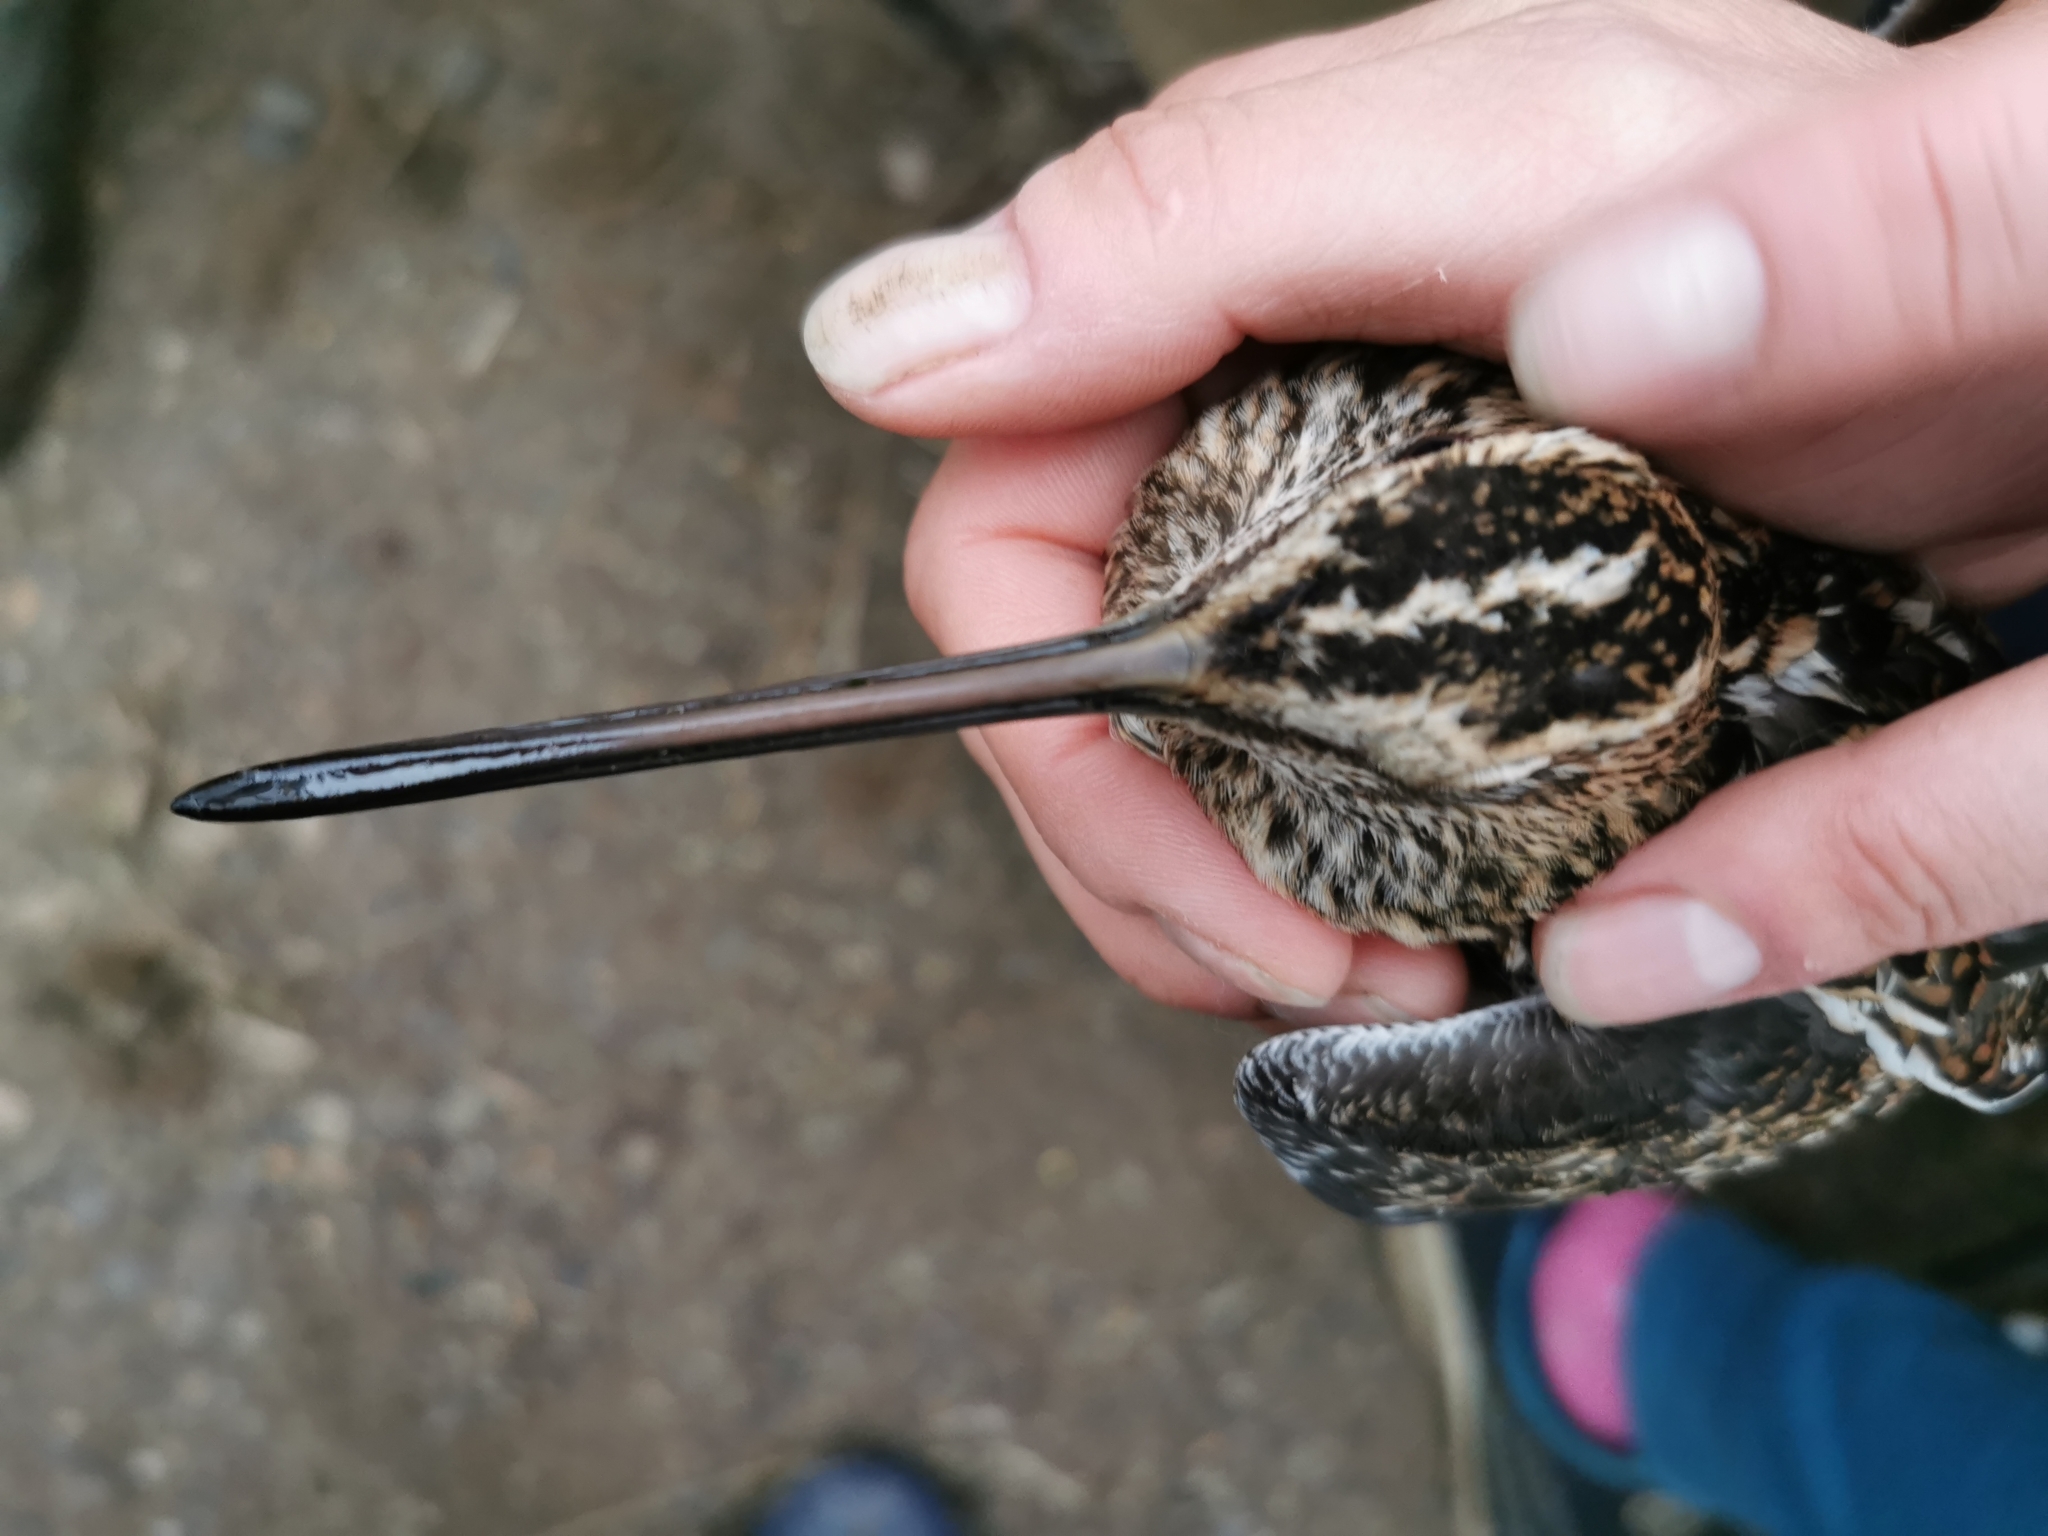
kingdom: Animalia
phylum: Chordata
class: Aves
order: Charadriiformes
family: Scolopacidae
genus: Gallinago
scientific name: Gallinago gallinago
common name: Common snipe
